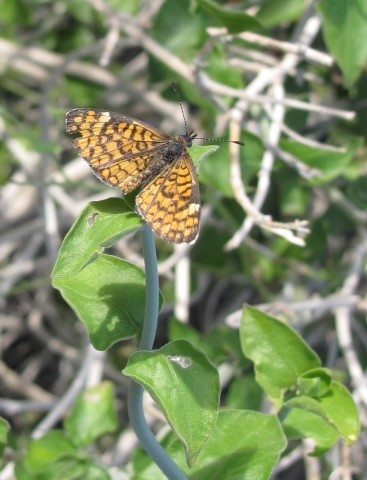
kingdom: Animalia
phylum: Arthropoda
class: Insecta
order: Lepidoptera
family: Nymphalidae
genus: Dymasia
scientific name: Dymasia dymas
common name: Tiny checkerspot
